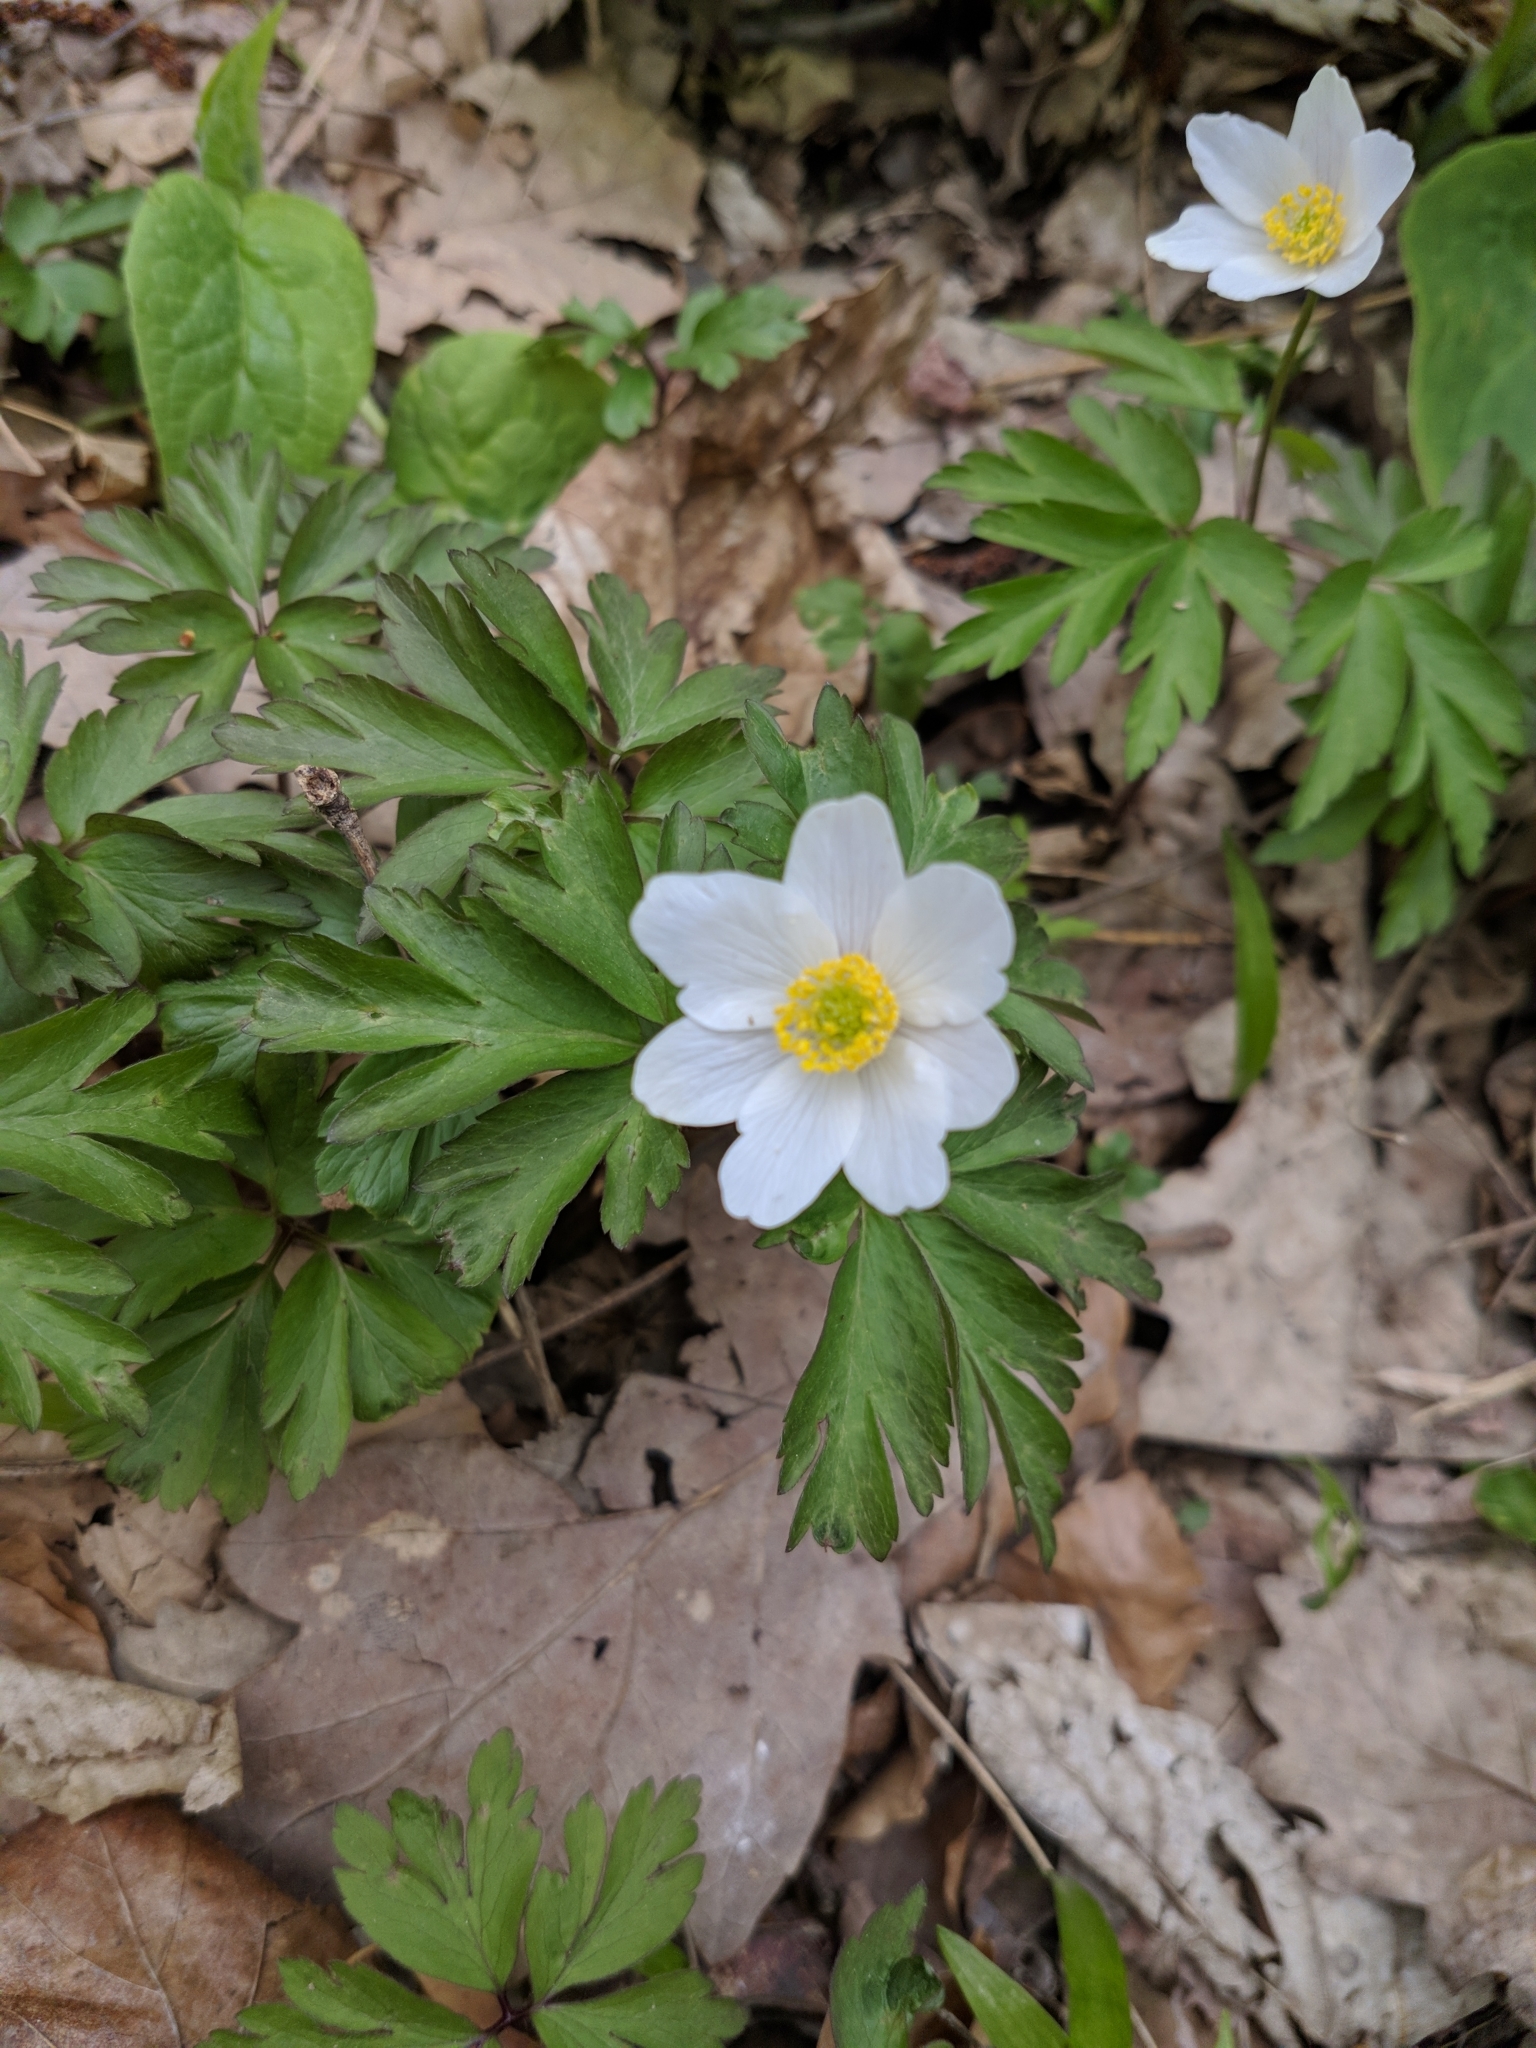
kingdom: Plantae
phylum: Tracheophyta
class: Magnoliopsida
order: Ranunculales
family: Ranunculaceae
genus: Anemone
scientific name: Anemone nemorosa
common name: Wood anemone
